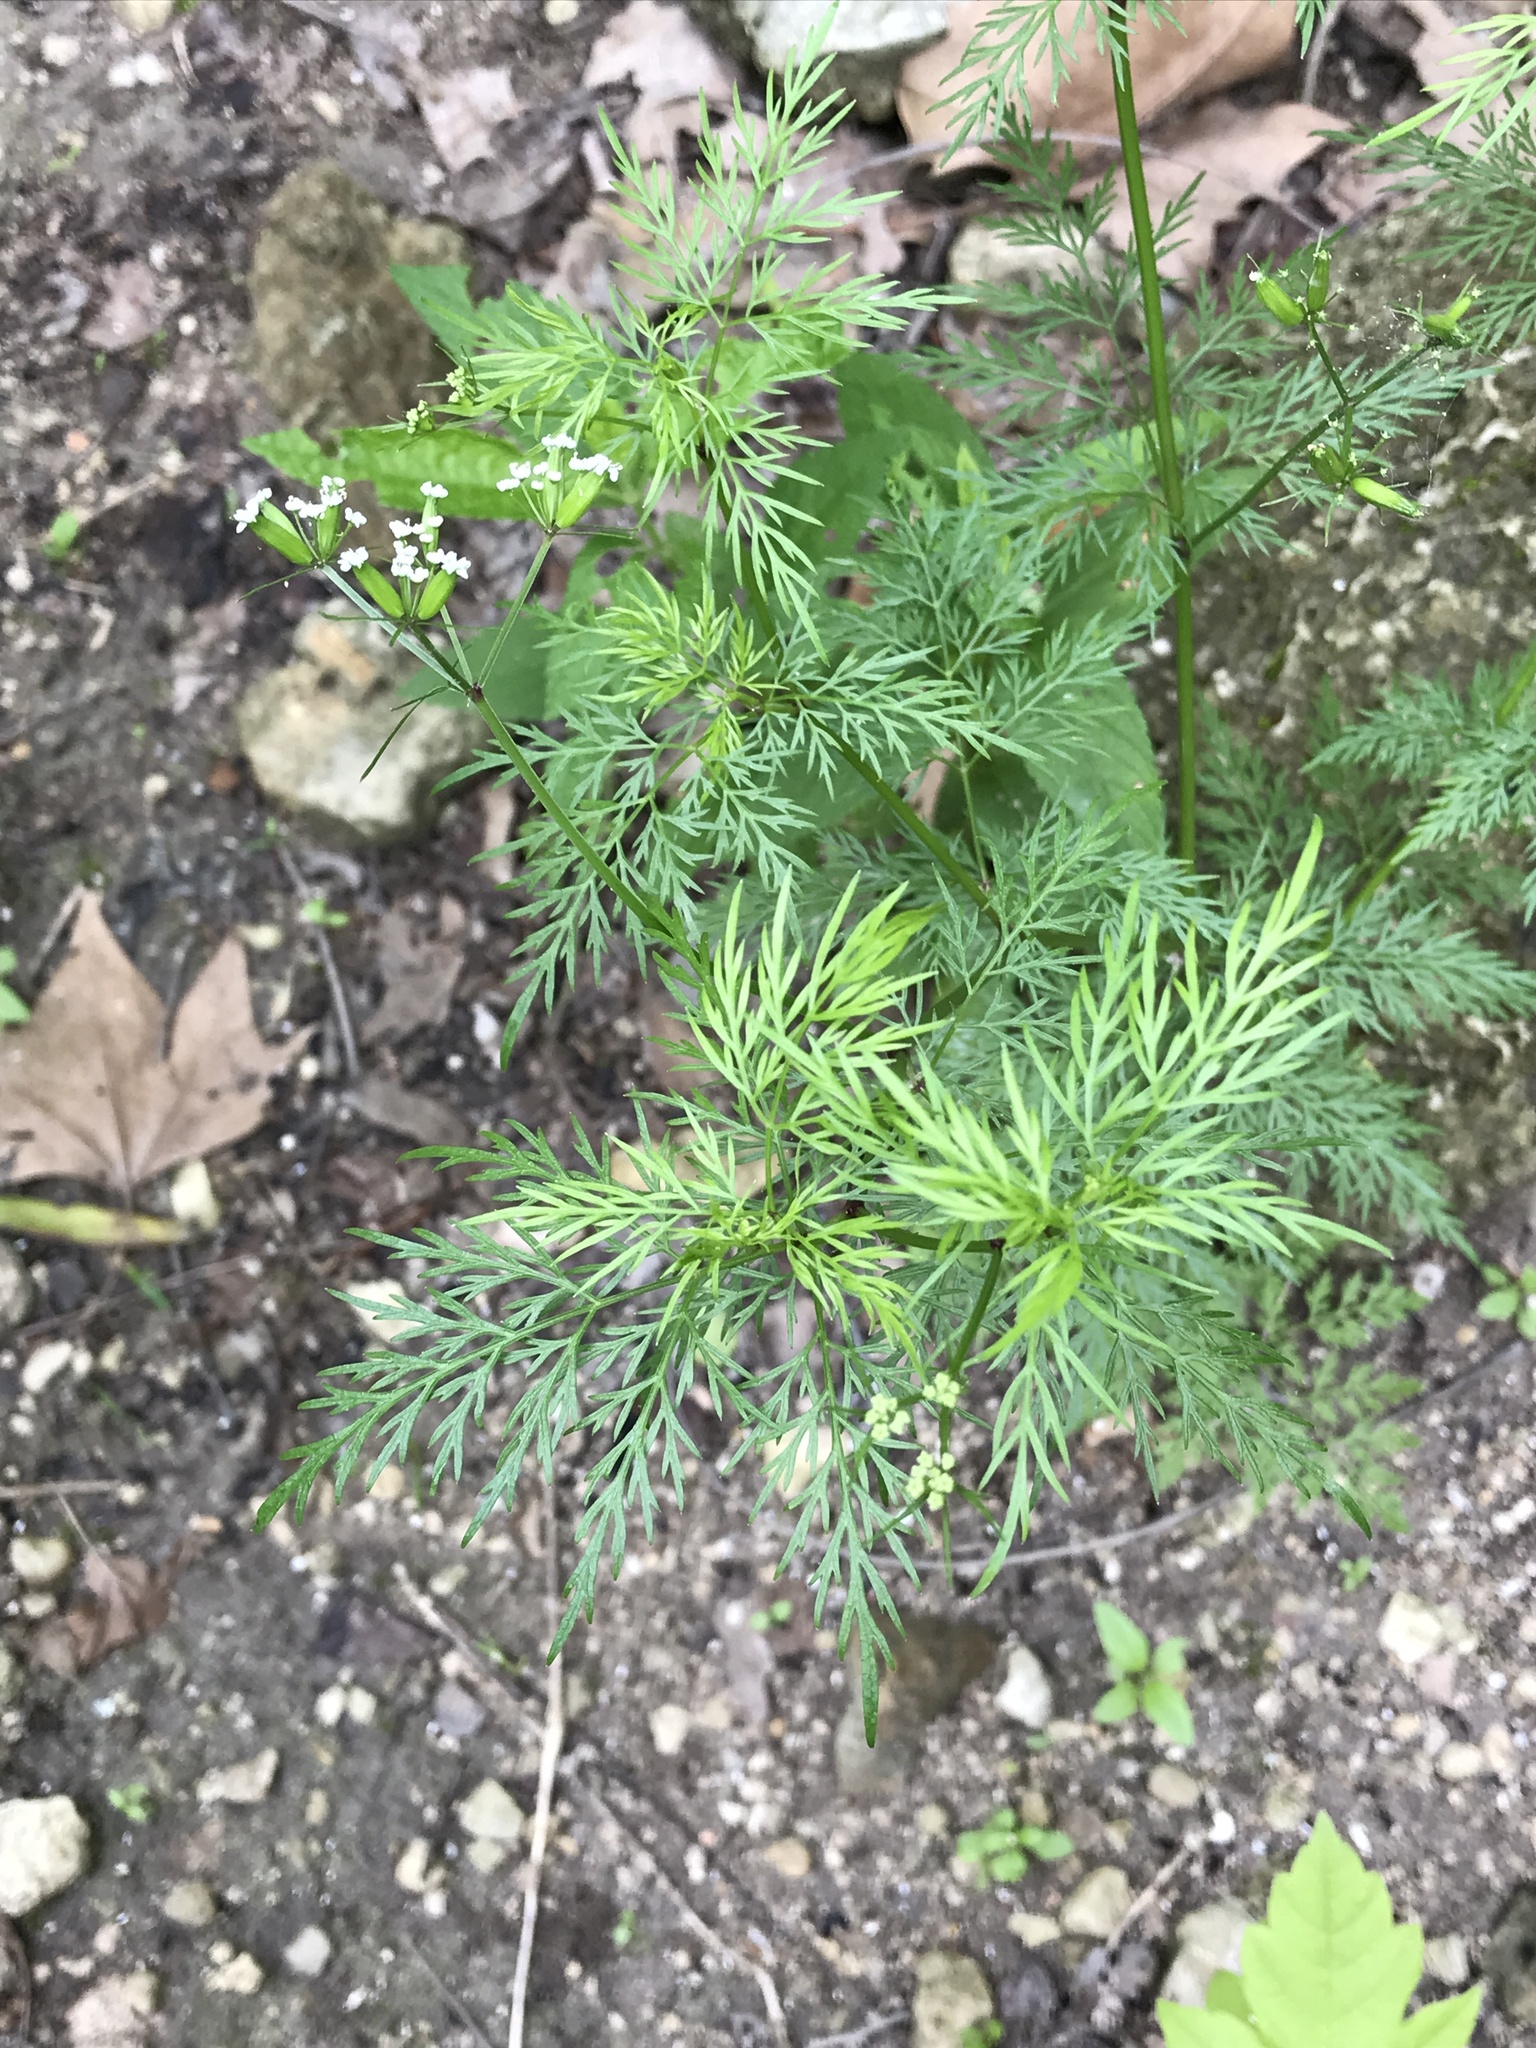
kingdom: Plantae
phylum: Tracheophyta
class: Magnoliopsida
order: Apiales
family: Apiaceae
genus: Trepocarpus
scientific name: Trepocarpus aethusae
